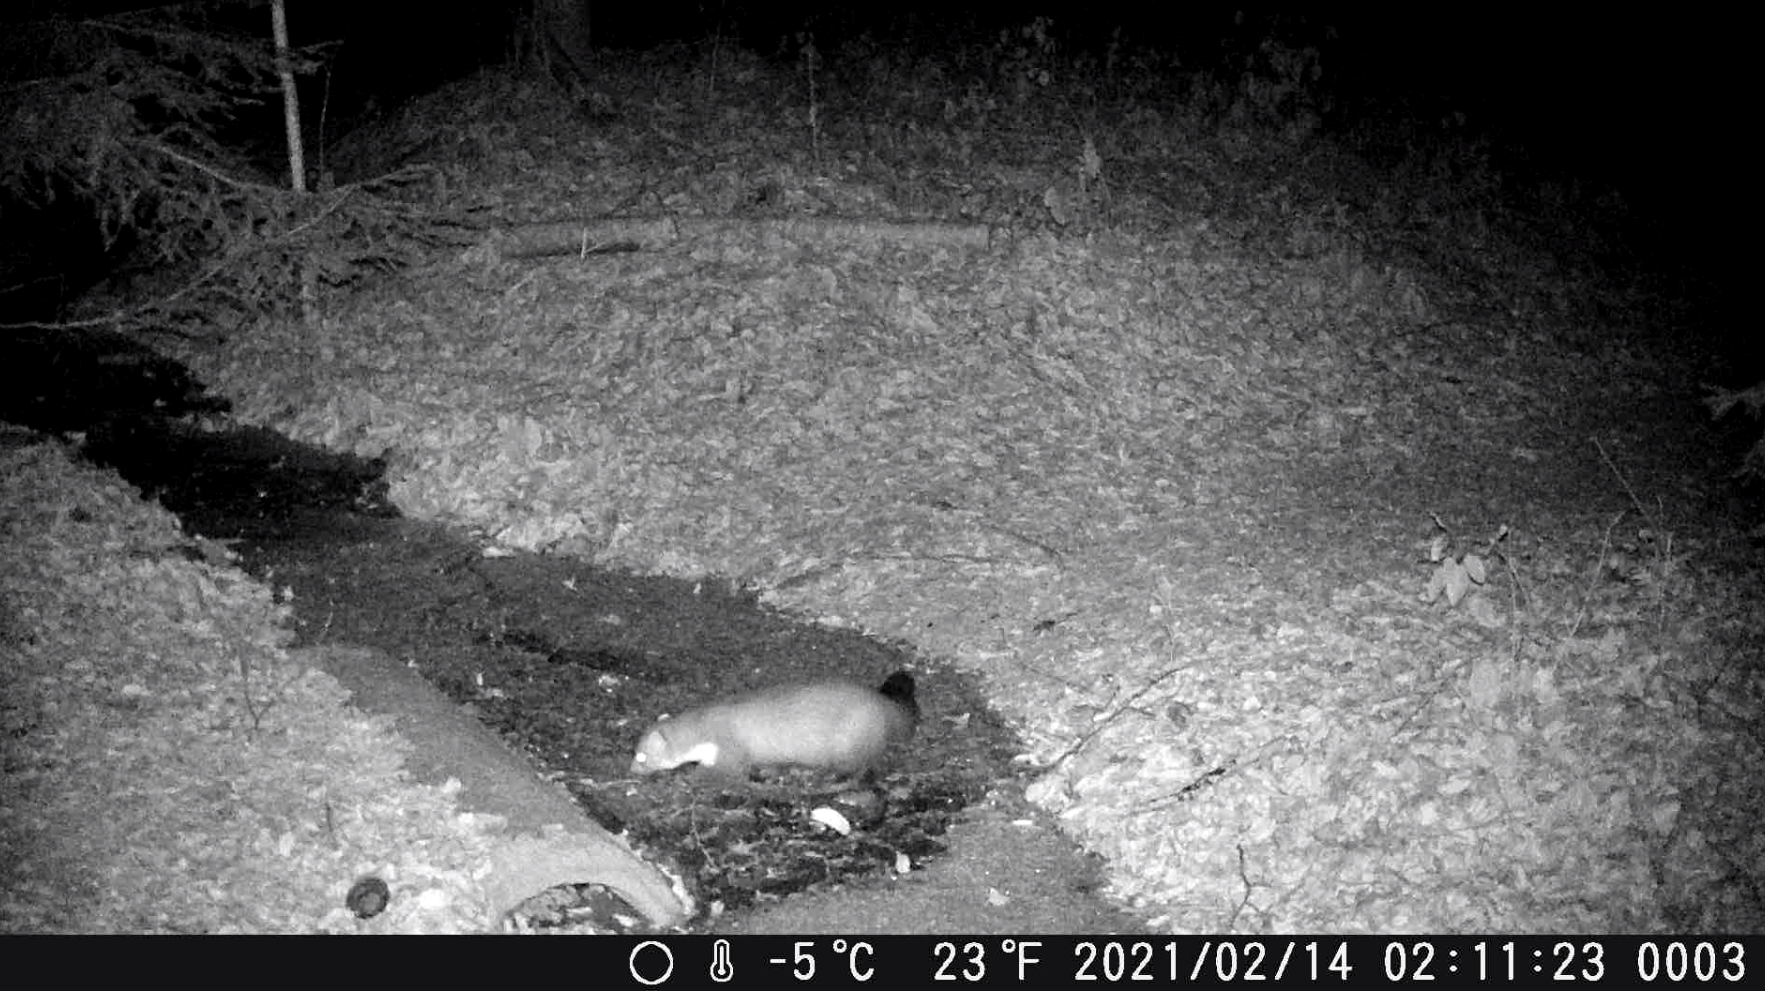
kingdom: Animalia
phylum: Chordata
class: Mammalia
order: Carnivora
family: Mustelidae
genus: Martes
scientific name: Martes foina
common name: Beech marten
